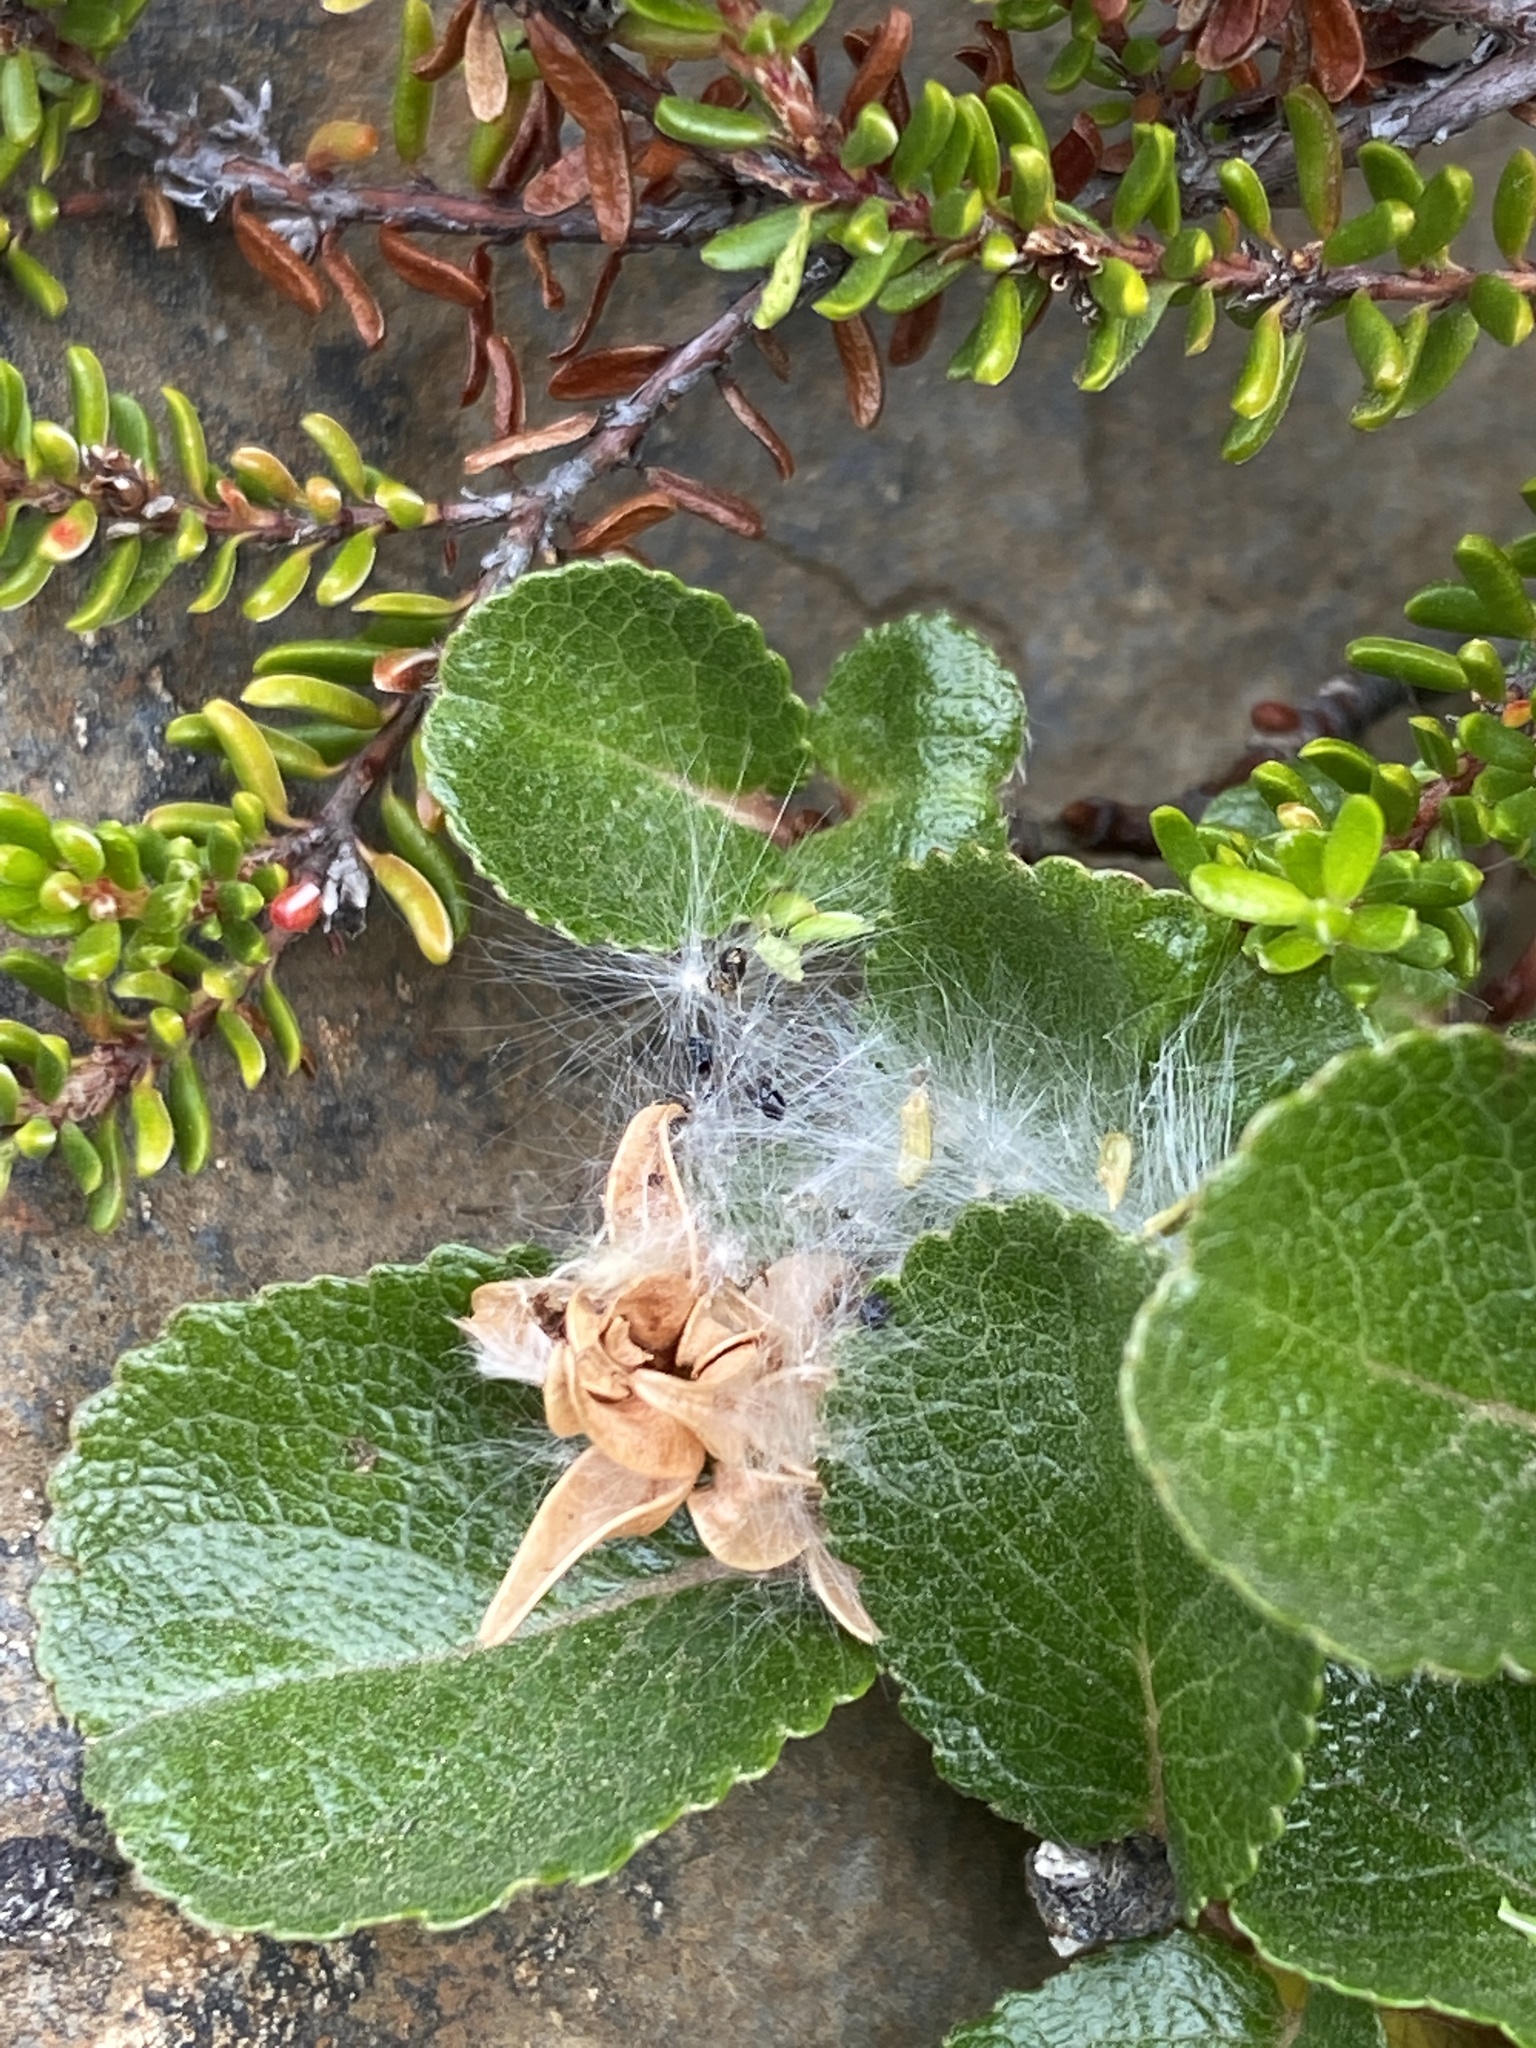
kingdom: Plantae
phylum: Tracheophyta
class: Magnoliopsida
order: Malpighiales
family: Salicaceae
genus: Salix
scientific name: Salix herbacea
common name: Dwarf willow
